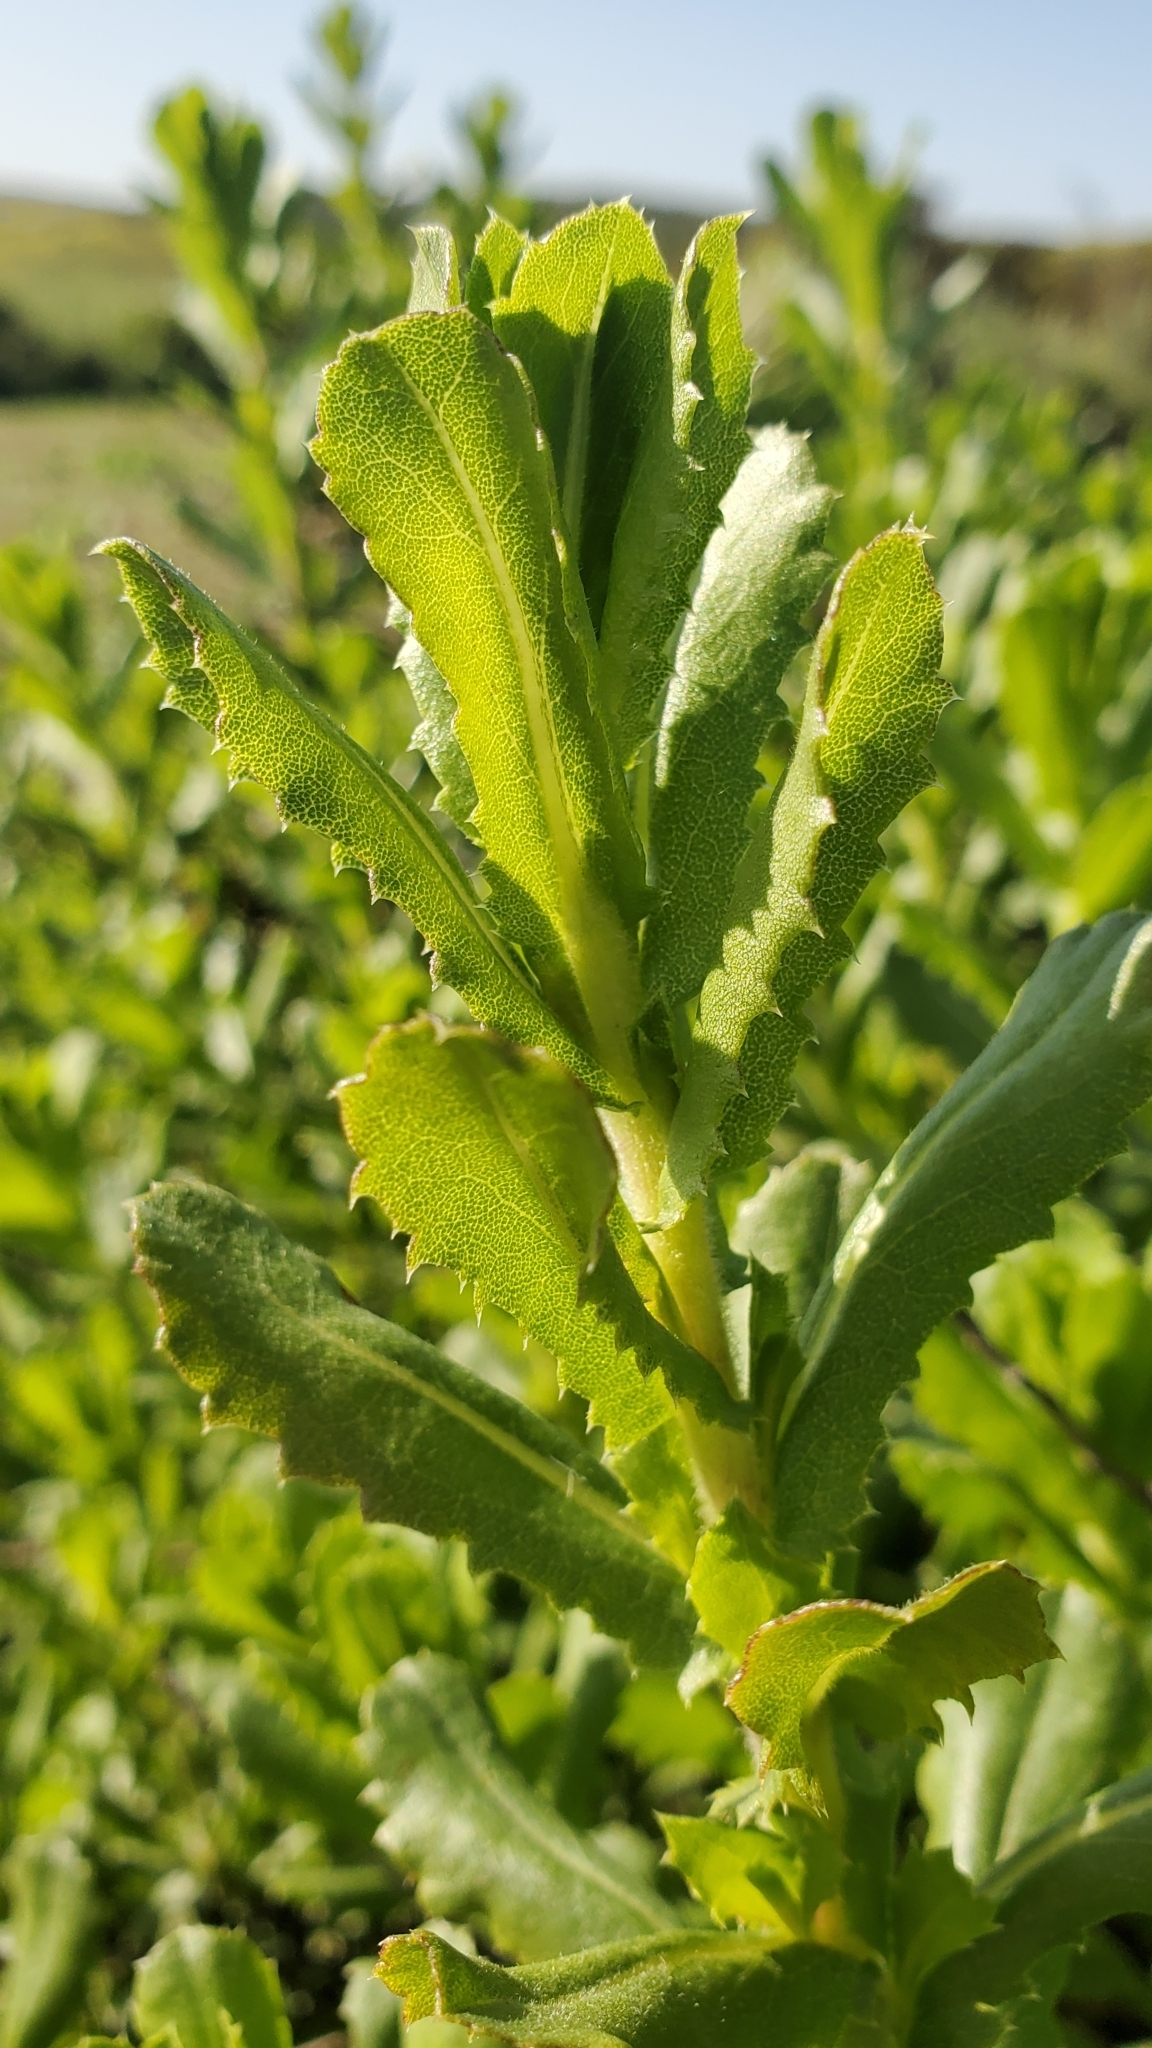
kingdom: Plantae
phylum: Tracheophyta
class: Magnoliopsida
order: Asterales
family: Asteraceae
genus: Hazardia
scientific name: Hazardia squarrosa
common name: Saw-tooth goldenbush
